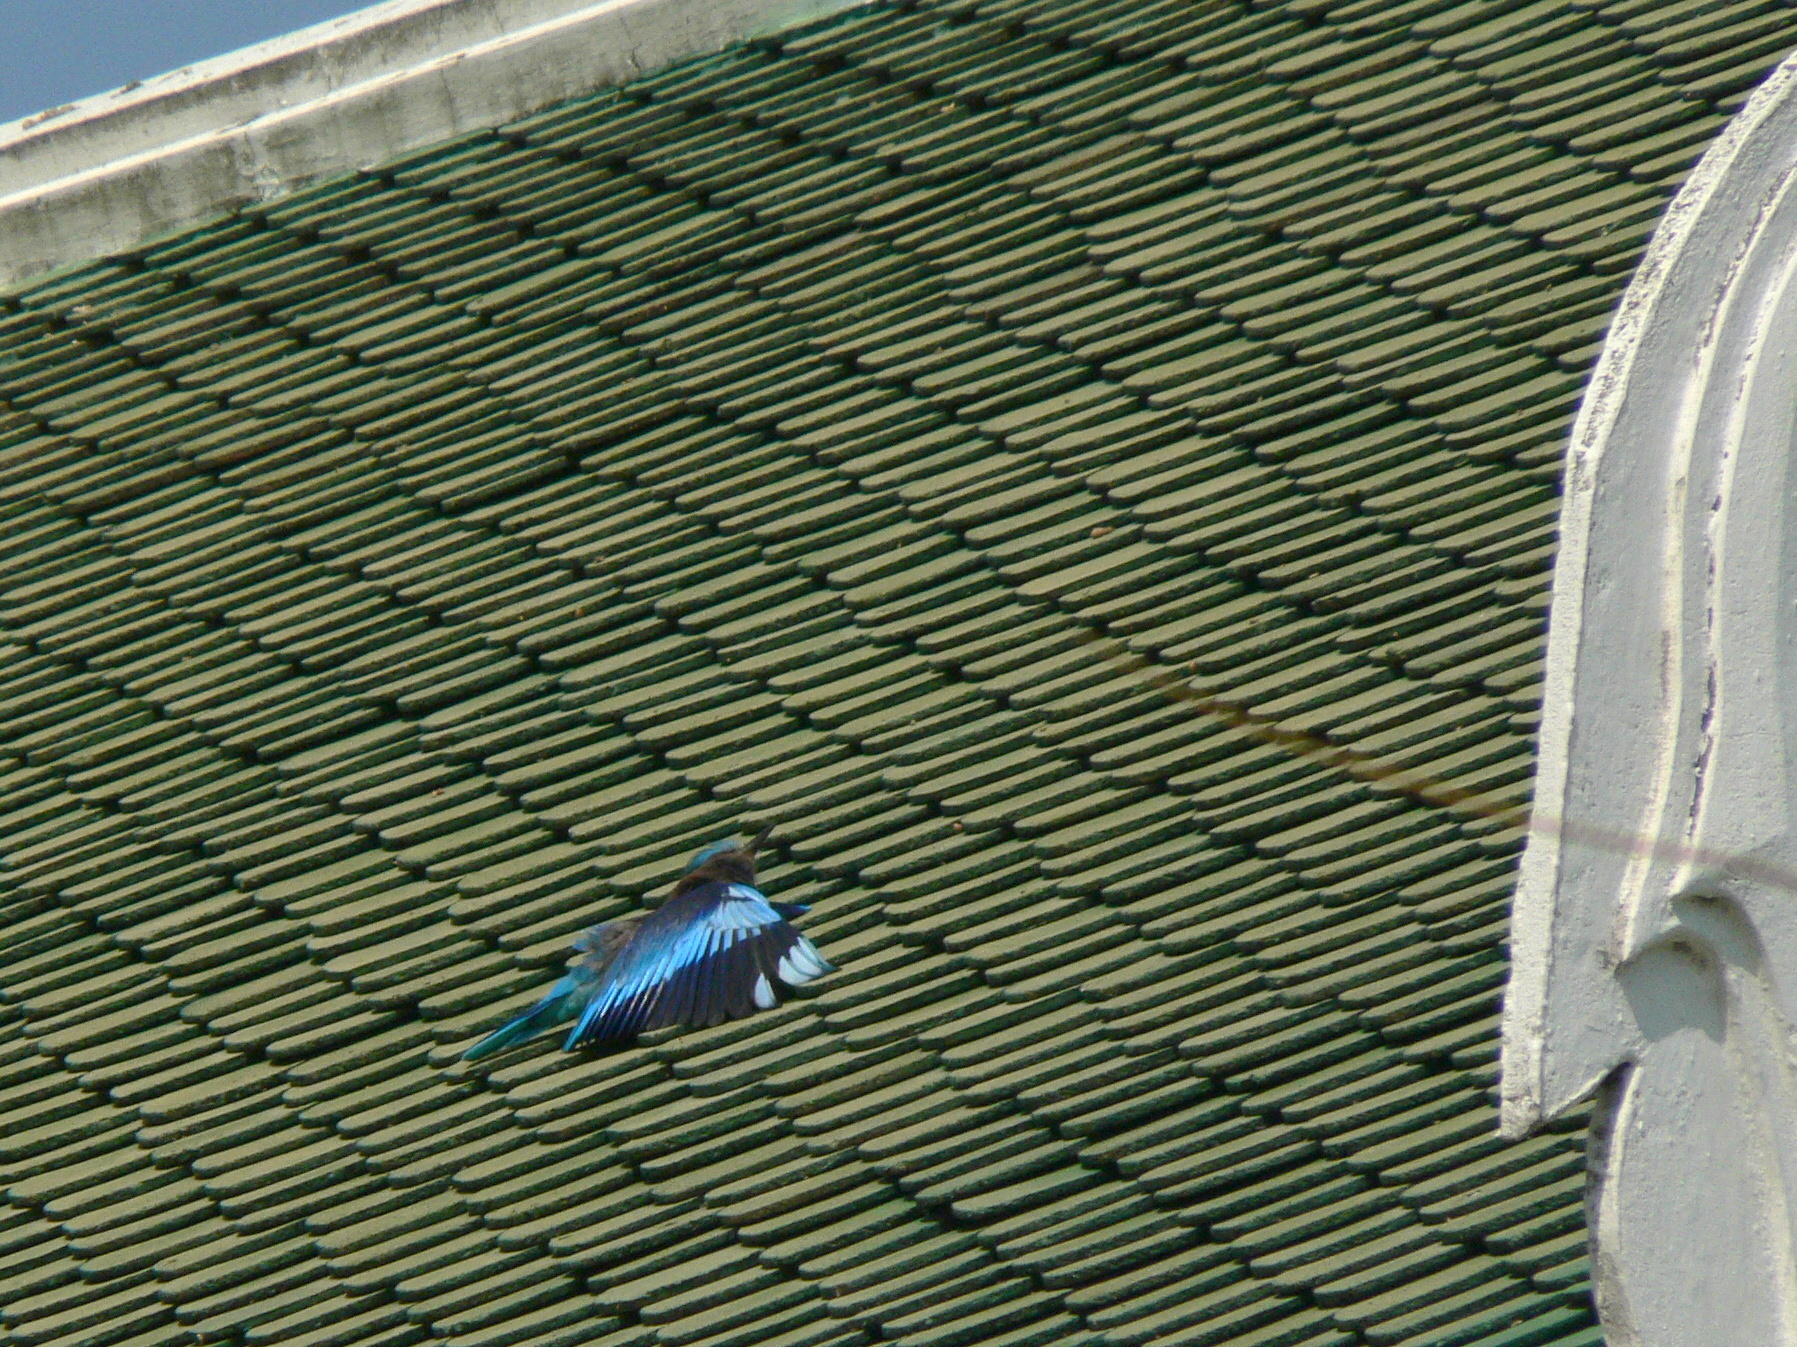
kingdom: Animalia
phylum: Chordata
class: Aves
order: Coraciiformes
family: Coraciidae
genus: Coracias
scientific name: Coracias affinis
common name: Indochinese roller
